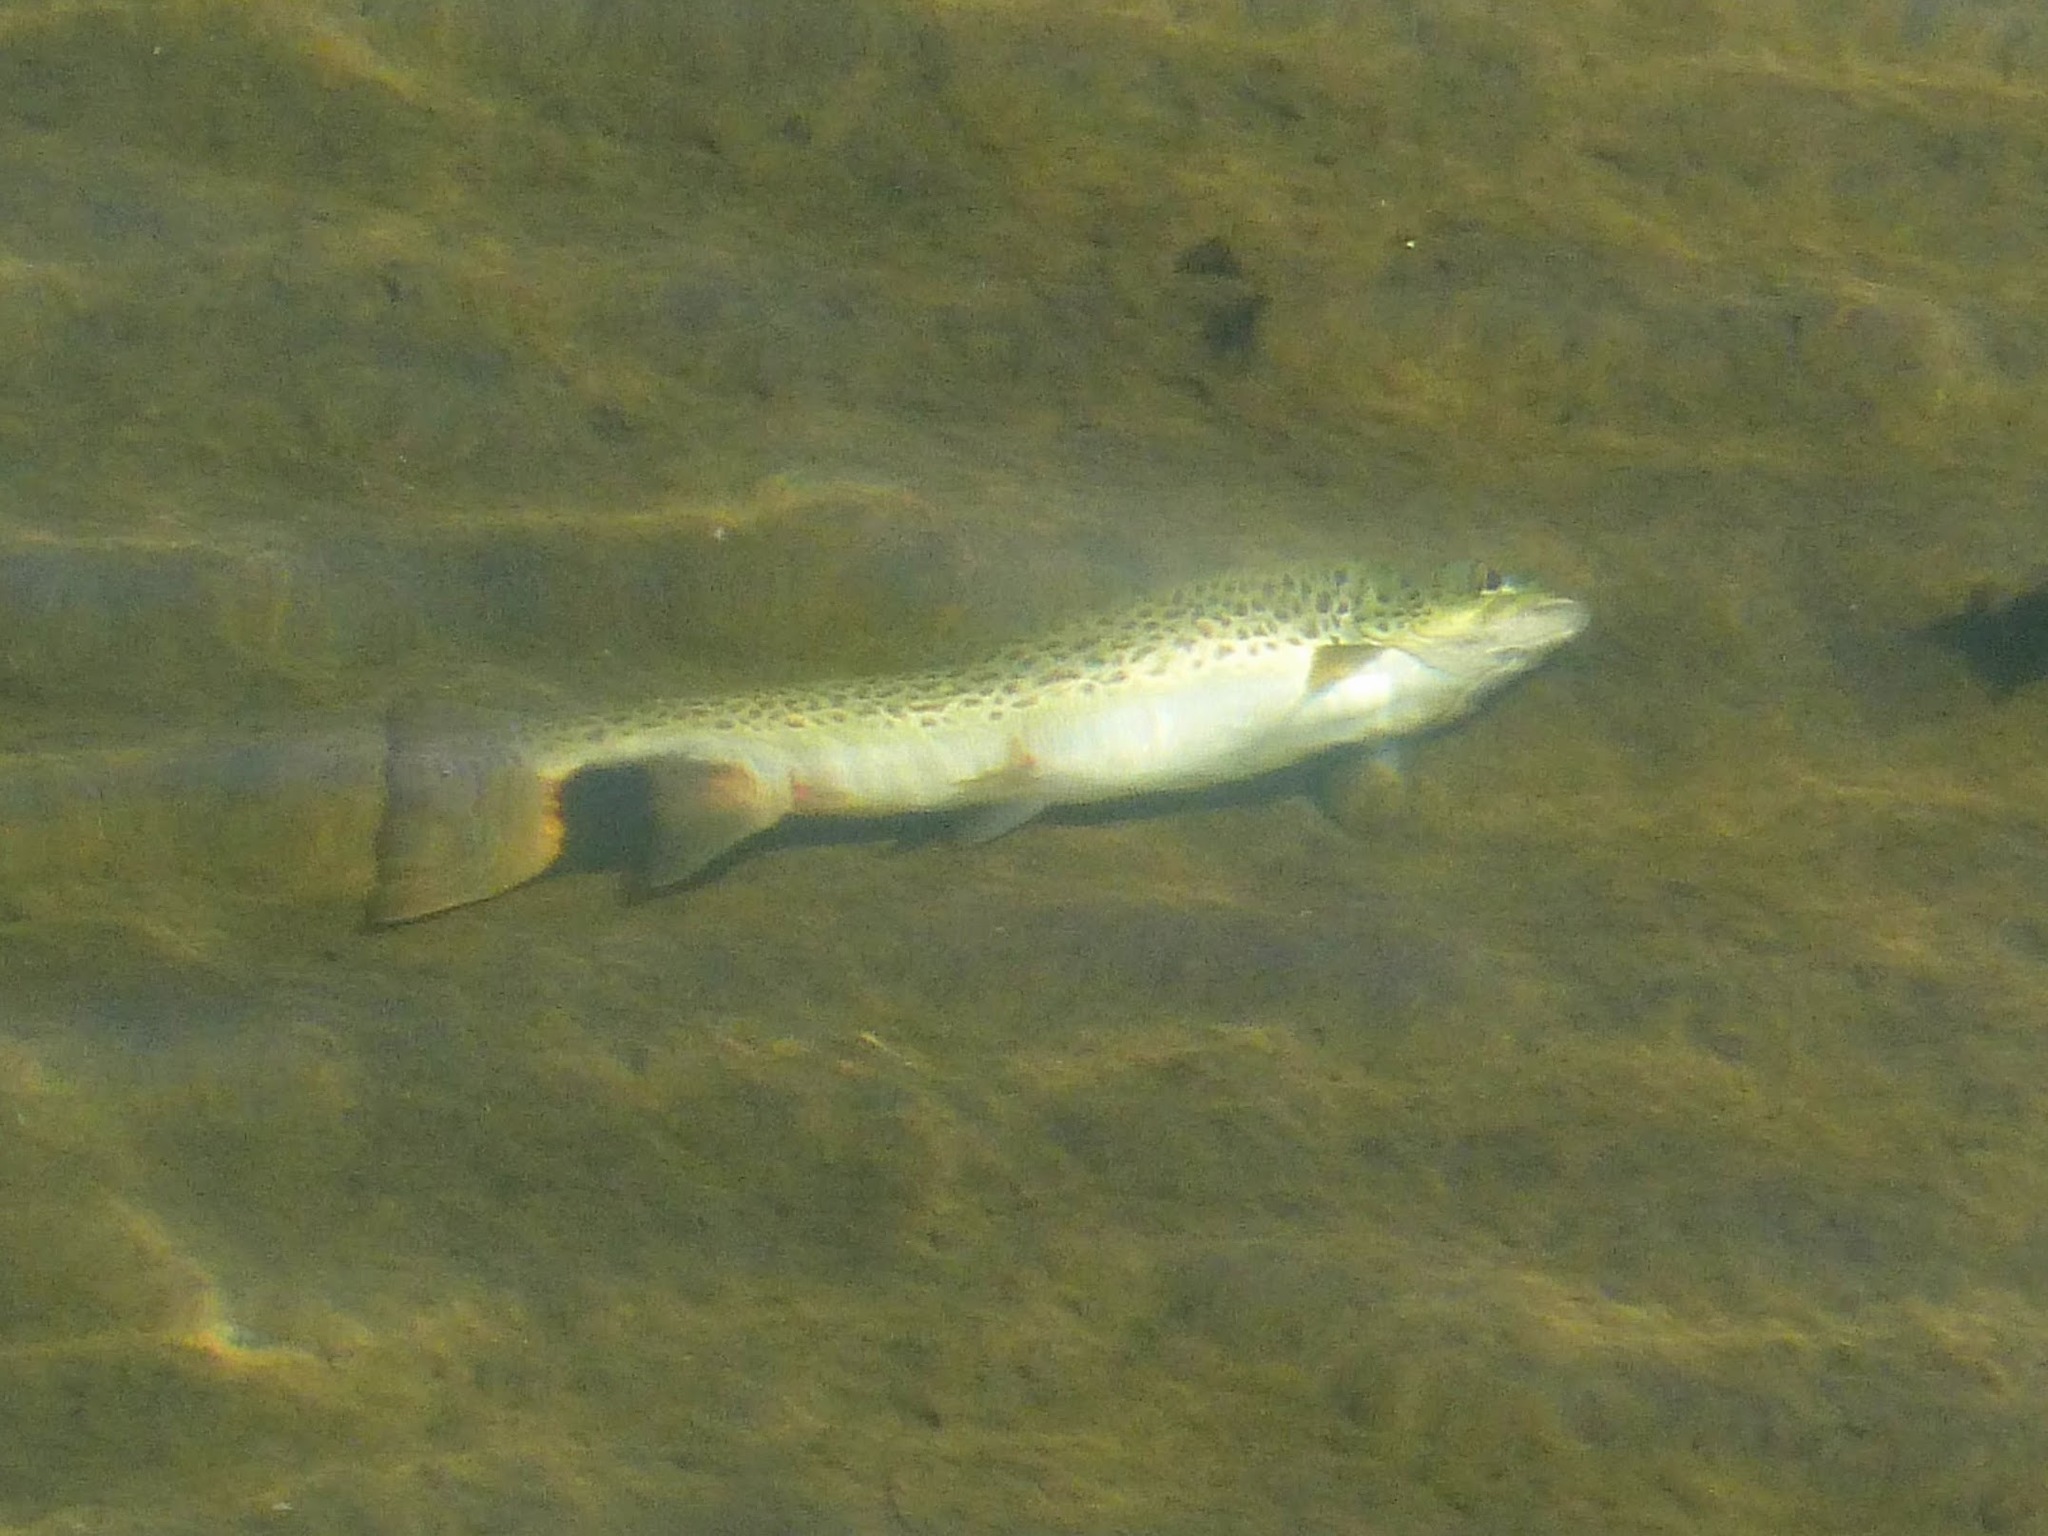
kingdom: Animalia
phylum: Chordata
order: Salmoniformes
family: Salmonidae
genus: Salmo
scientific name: Salmo trutta
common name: Brown trout
